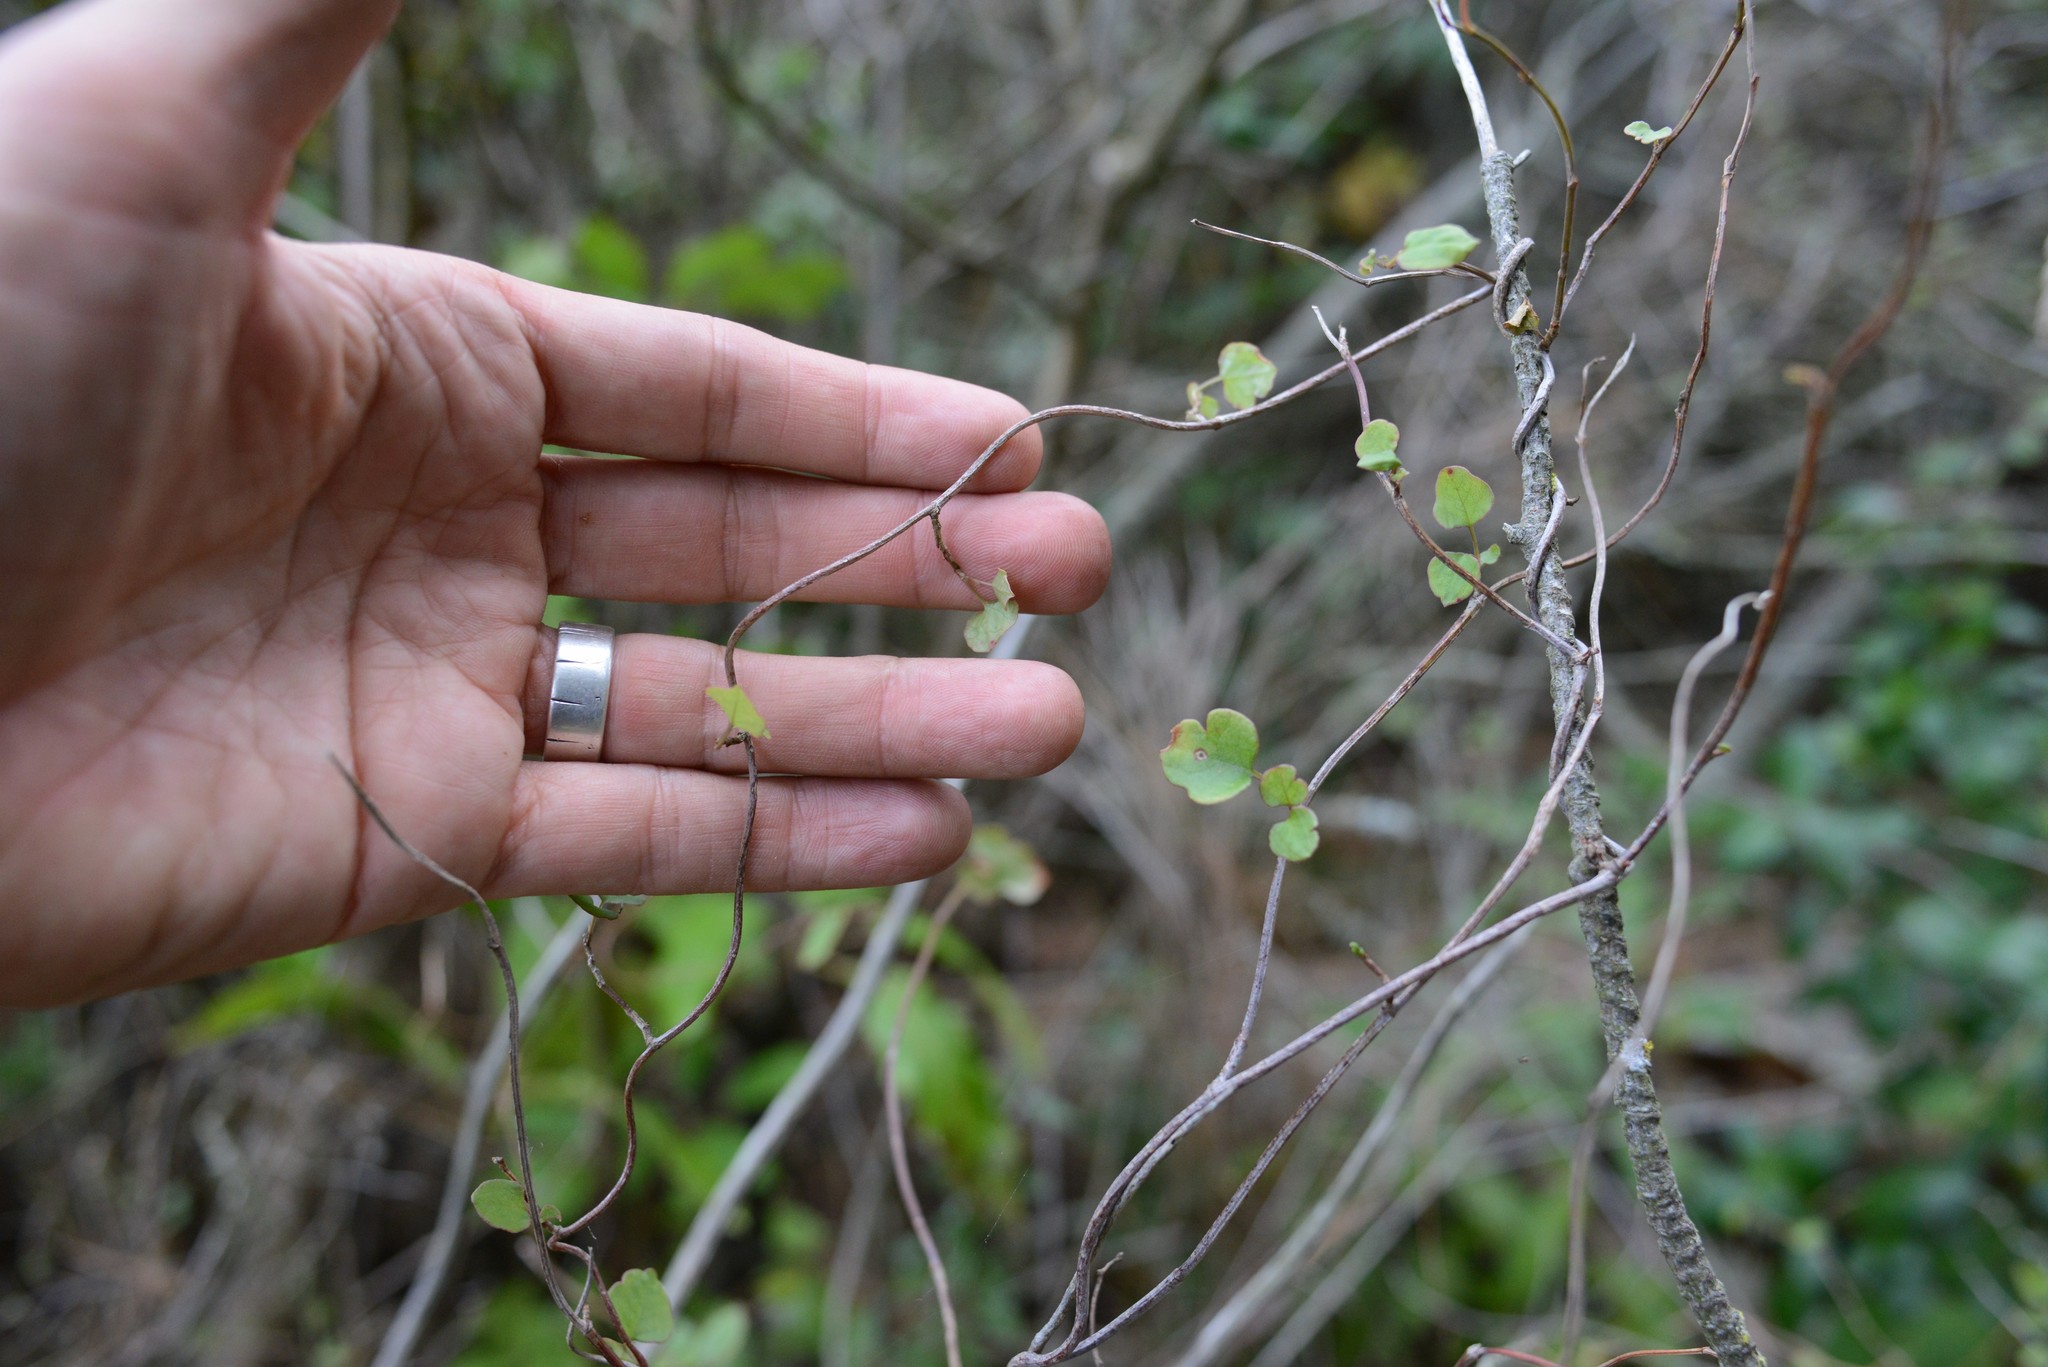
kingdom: Plantae
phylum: Tracheophyta
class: Magnoliopsida
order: Caryophyllales
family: Polygonaceae
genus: Muehlenbeckia
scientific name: Muehlenbeckia australis
